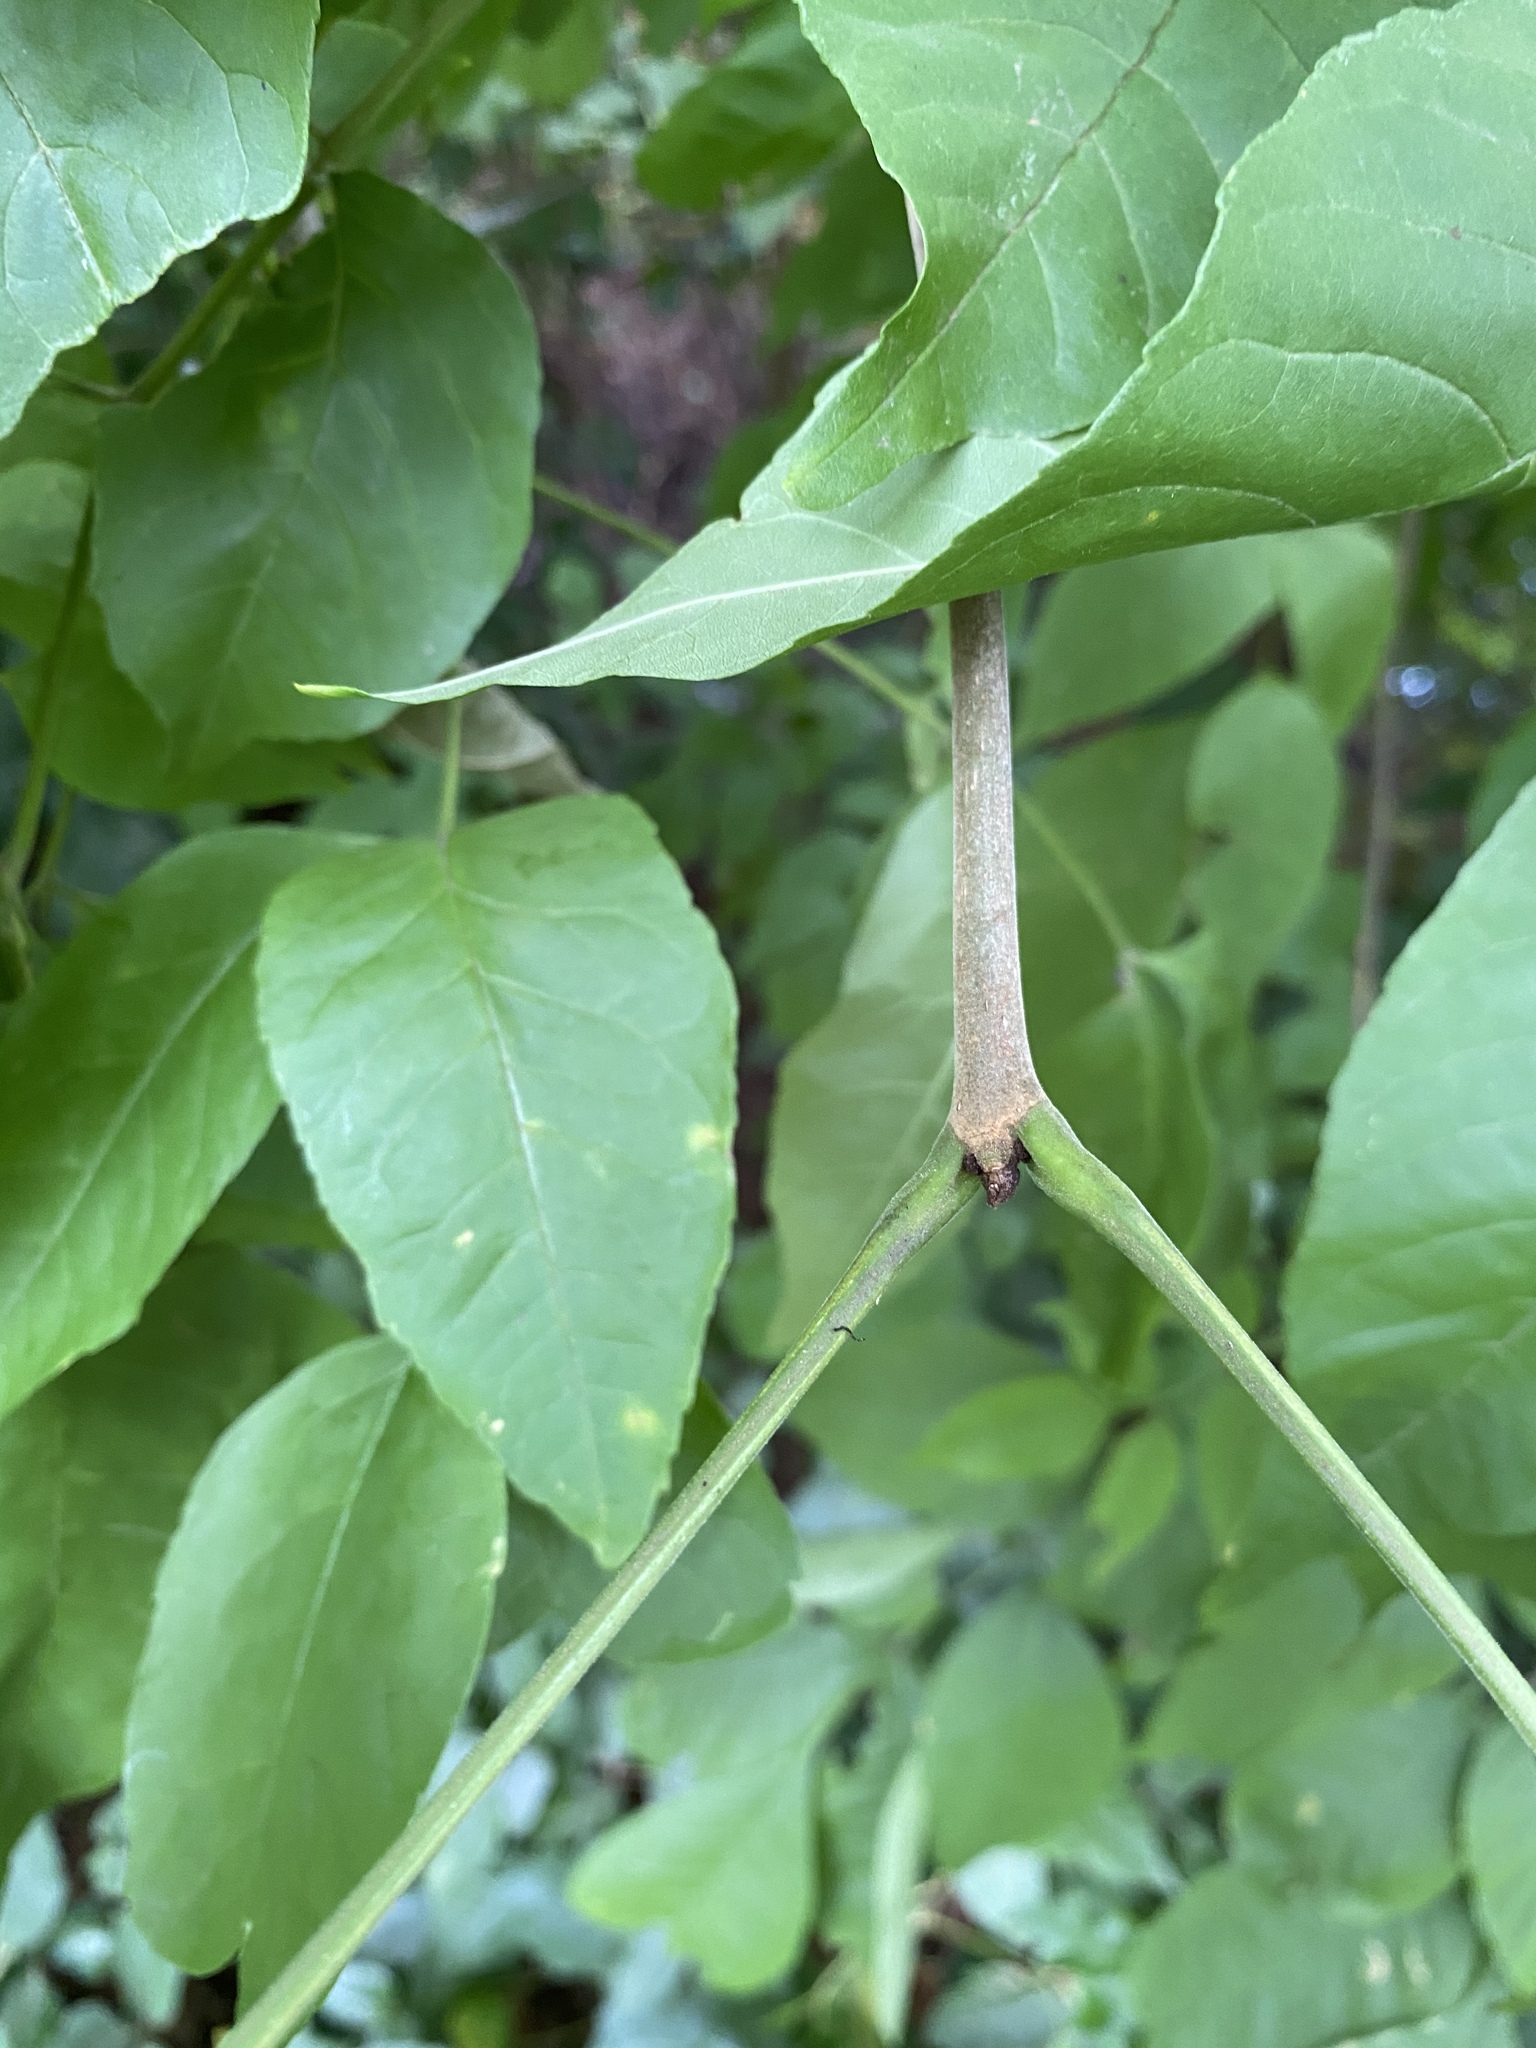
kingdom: Plantae
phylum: Tracheophyta
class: Magnoliopsida
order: Lamiales
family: Oleaceae
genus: Fraxinus
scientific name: Fraxinus pennsylvanica
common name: Green ash
